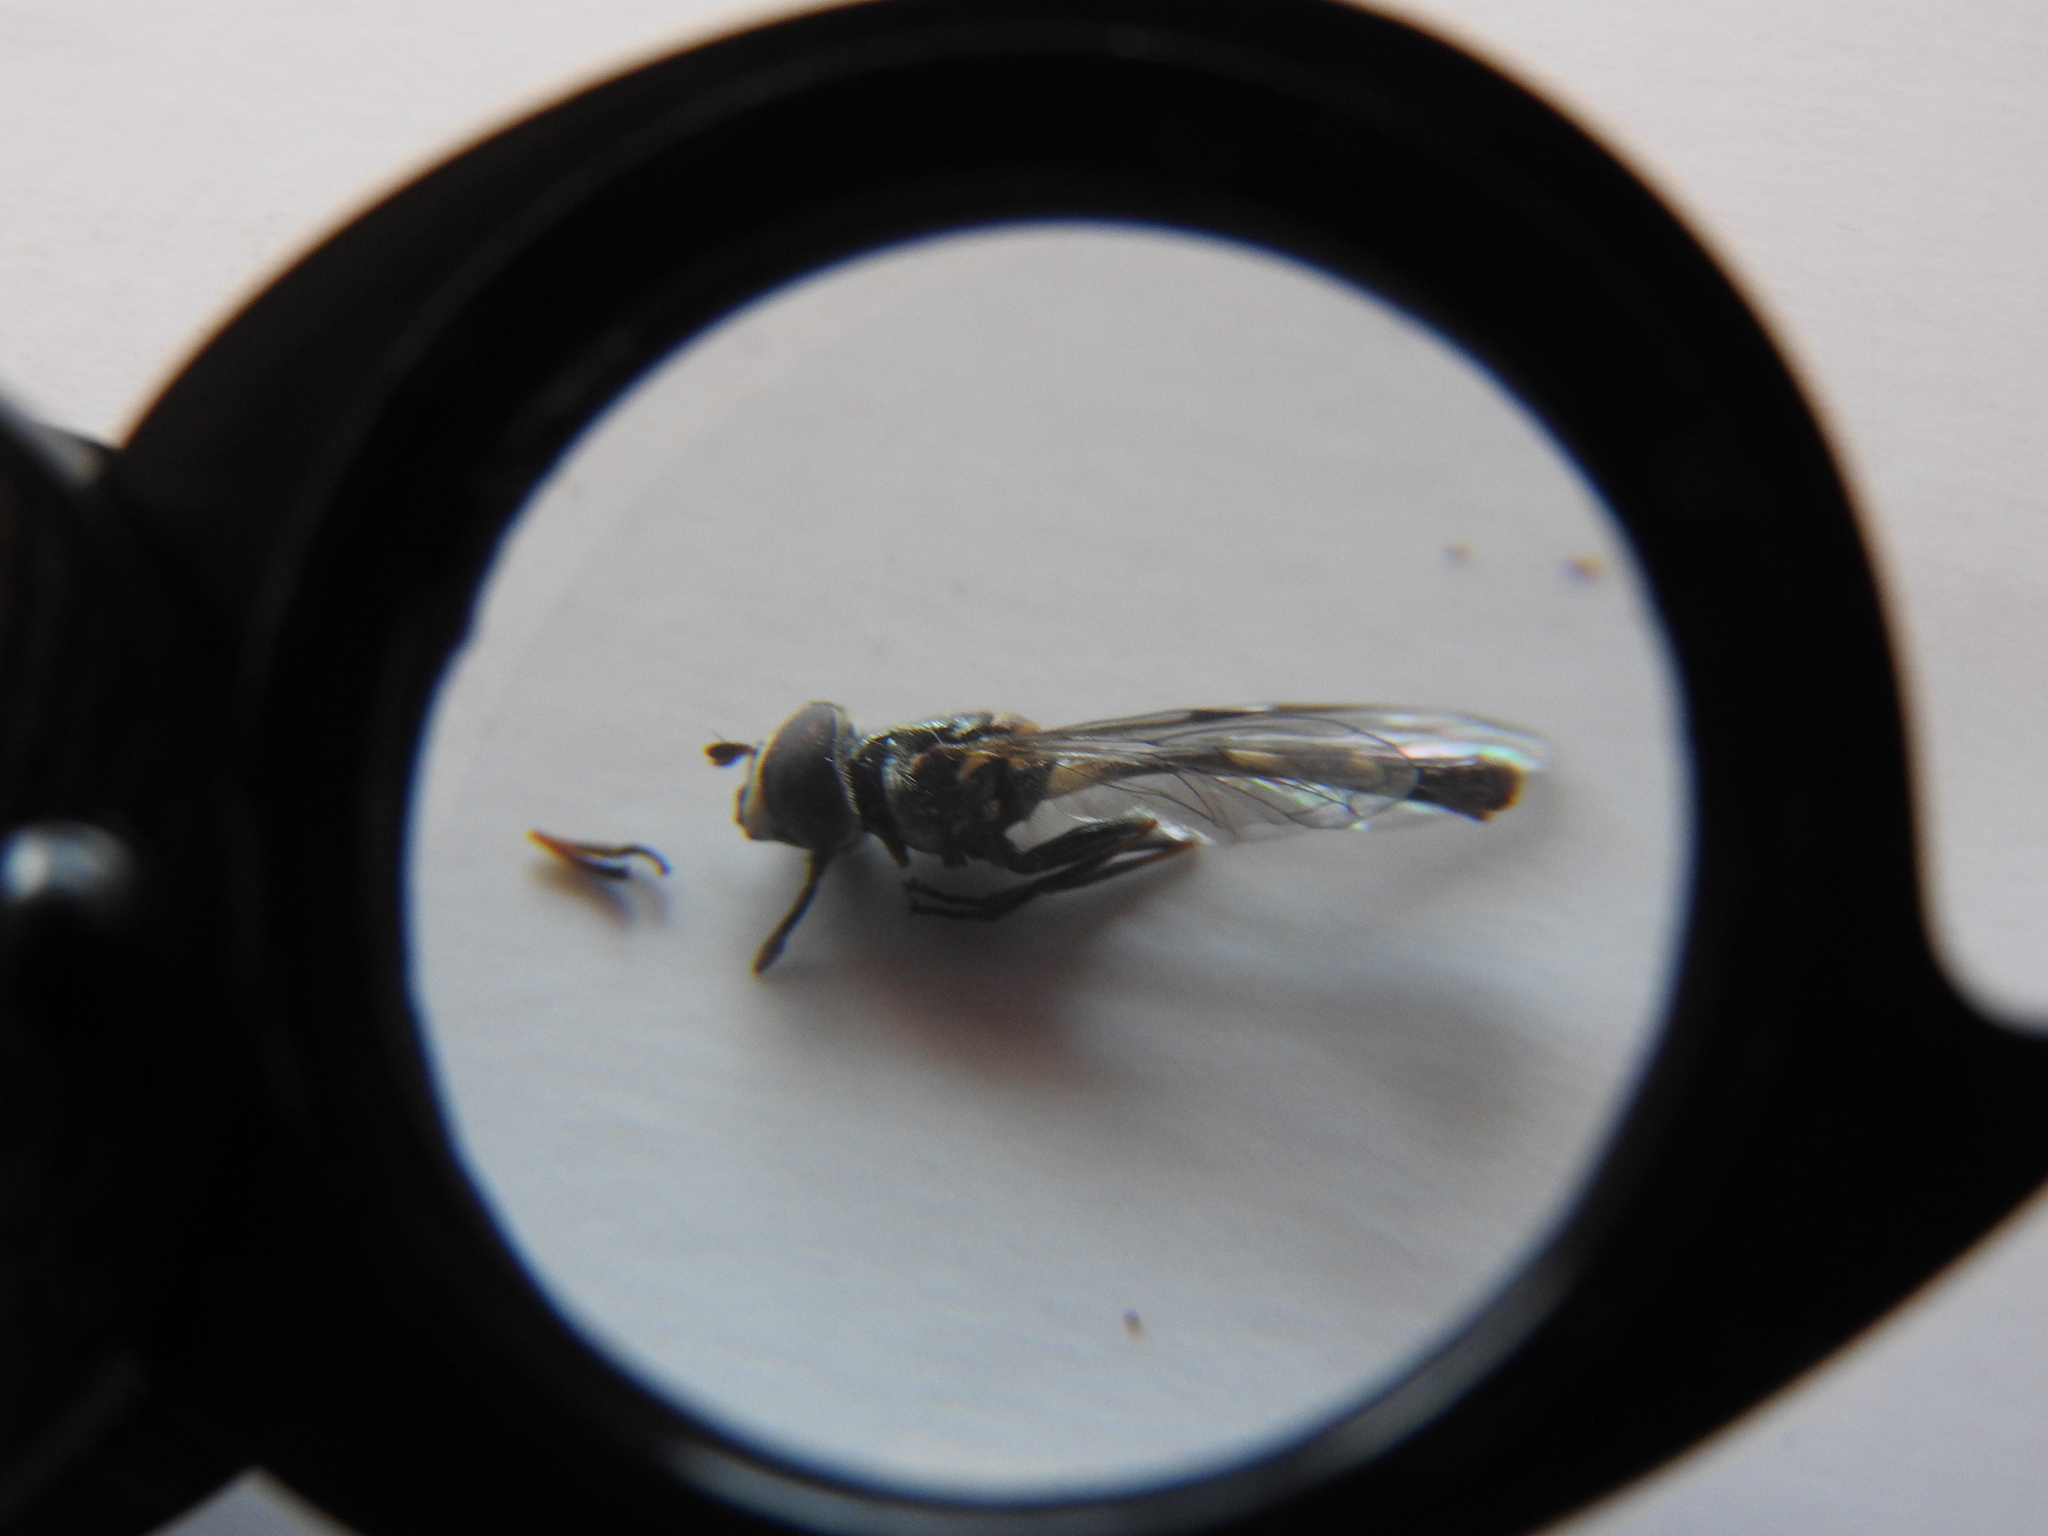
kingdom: Animalia
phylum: Arthropoda
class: Insecta
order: Diptera
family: Syrphidae
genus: Dioprosopa
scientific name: Dioprosopa clavatus
